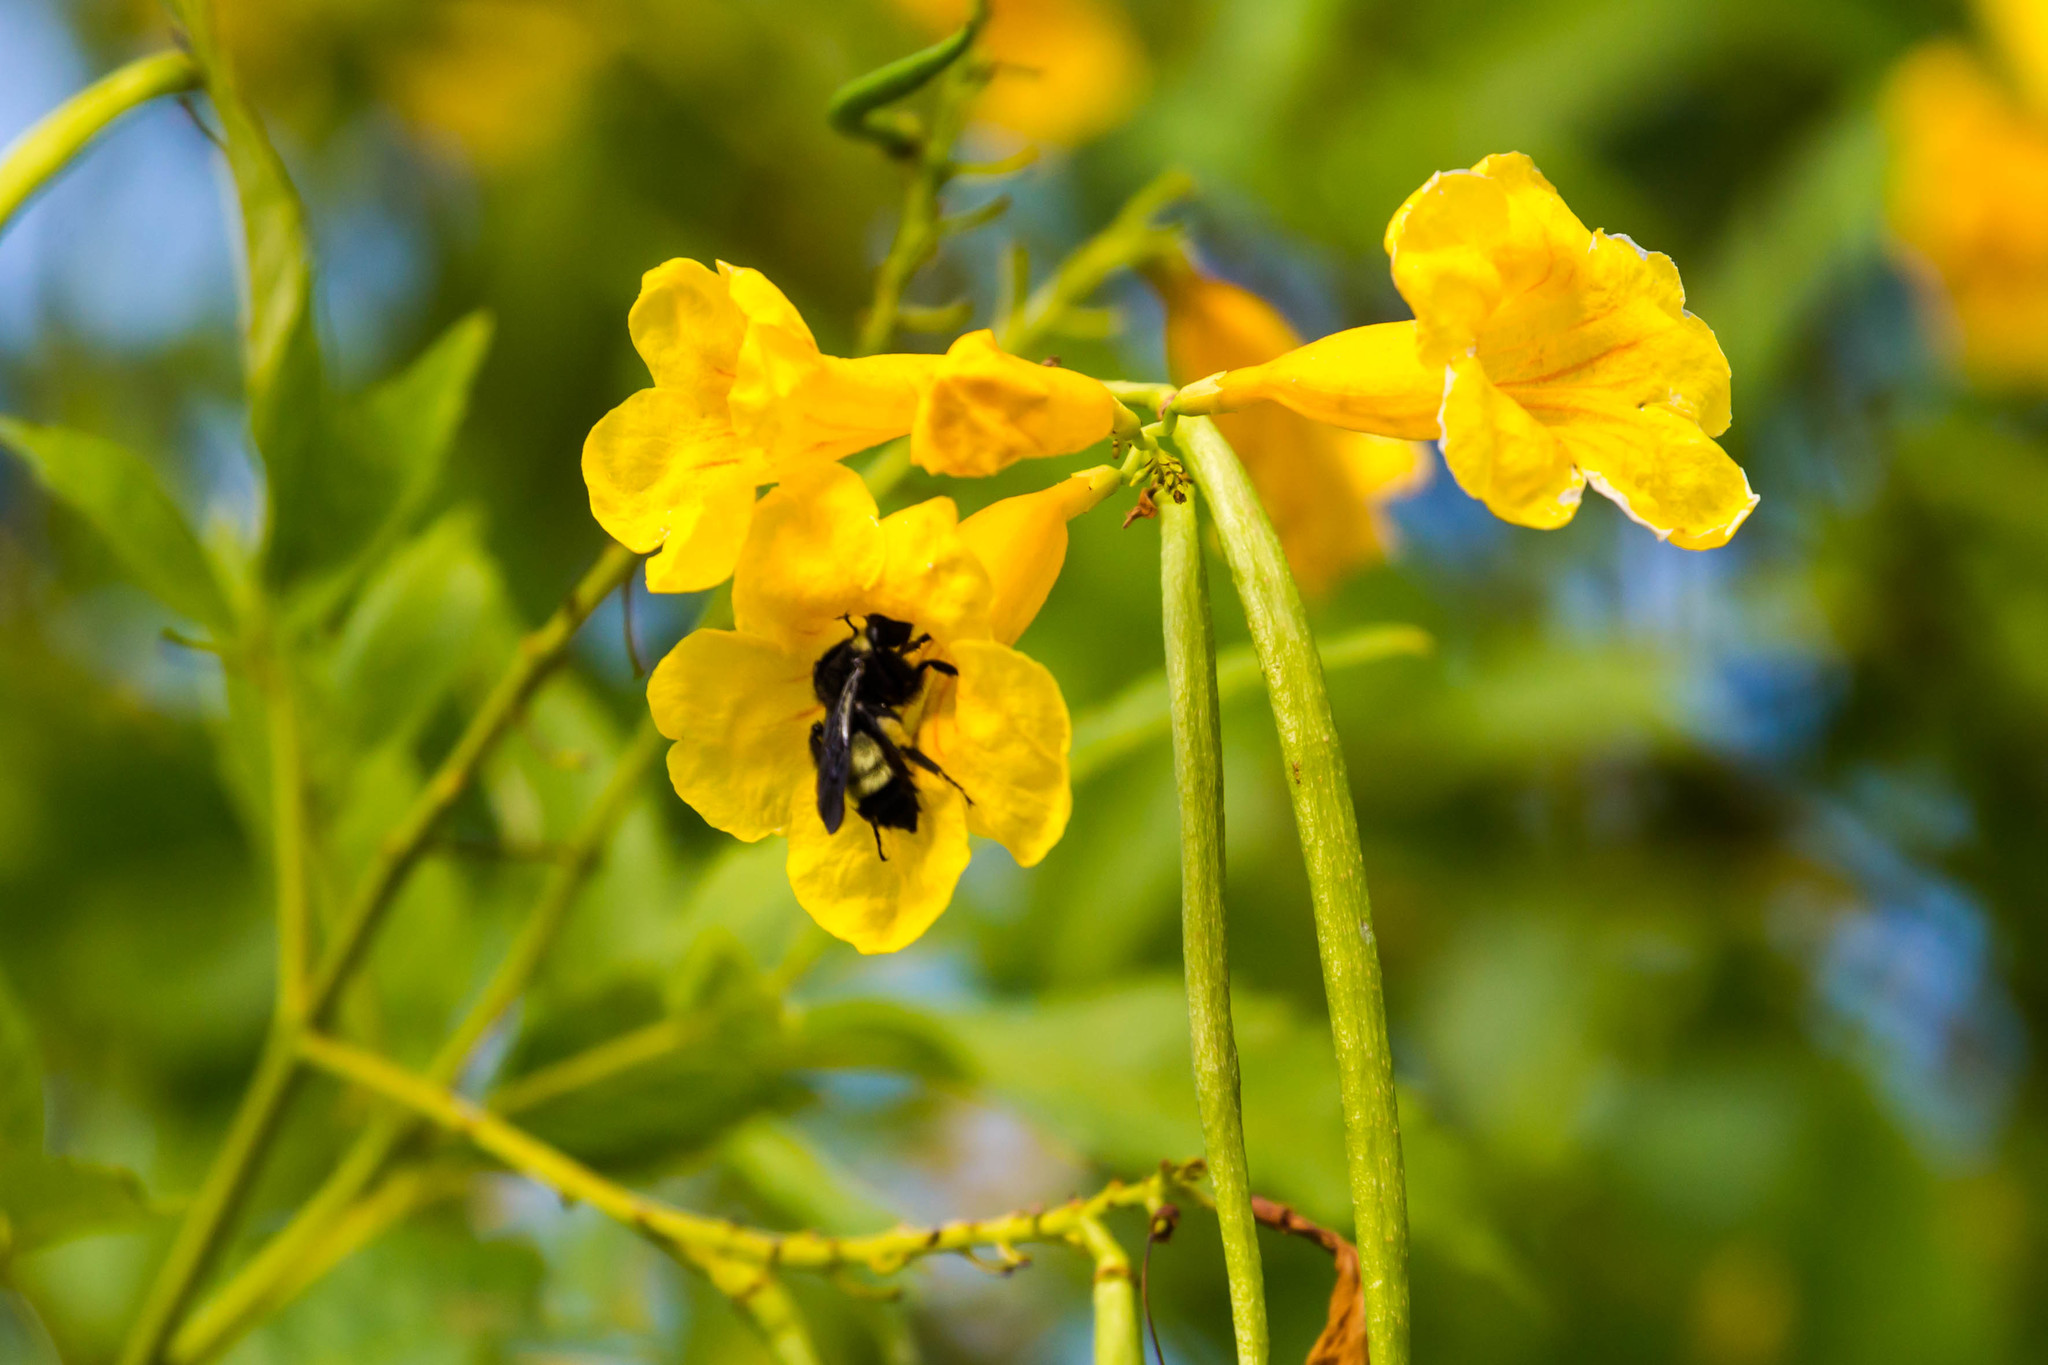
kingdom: Animalia
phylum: Arthropoda
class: Insecta
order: Hymenoptera
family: Apidae
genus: Bombus
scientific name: Bombus pensylvanicus
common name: Bumble bee
